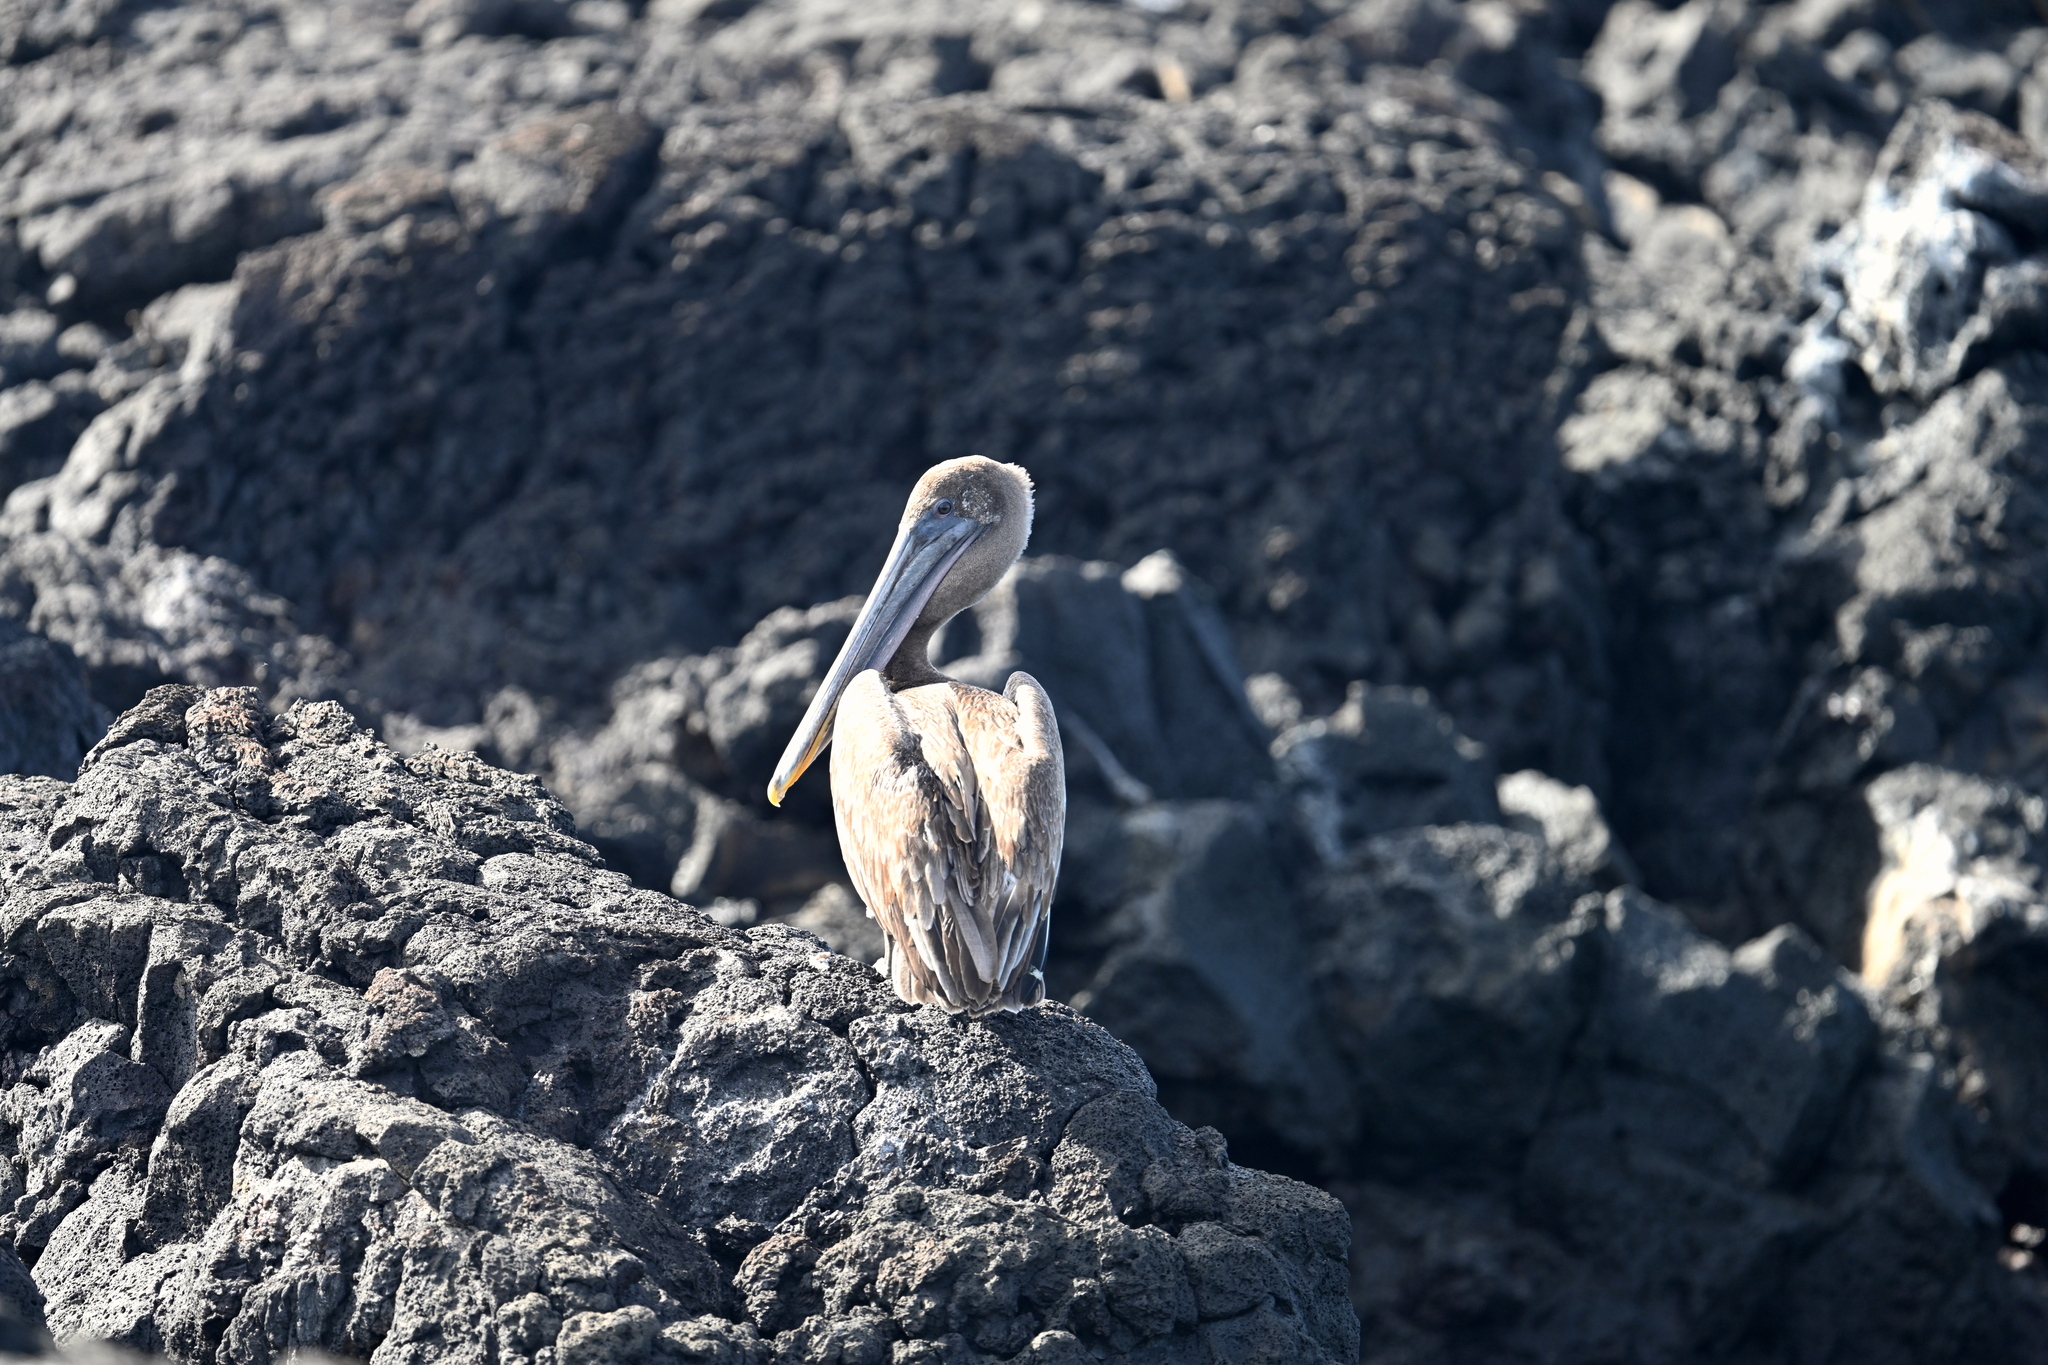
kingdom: Animalia
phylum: Chordata
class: Aves
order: Pelecaniformes
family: Pelecanidae
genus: Pelecanus
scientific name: Pelecanus occidentalis
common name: Brown pelican
